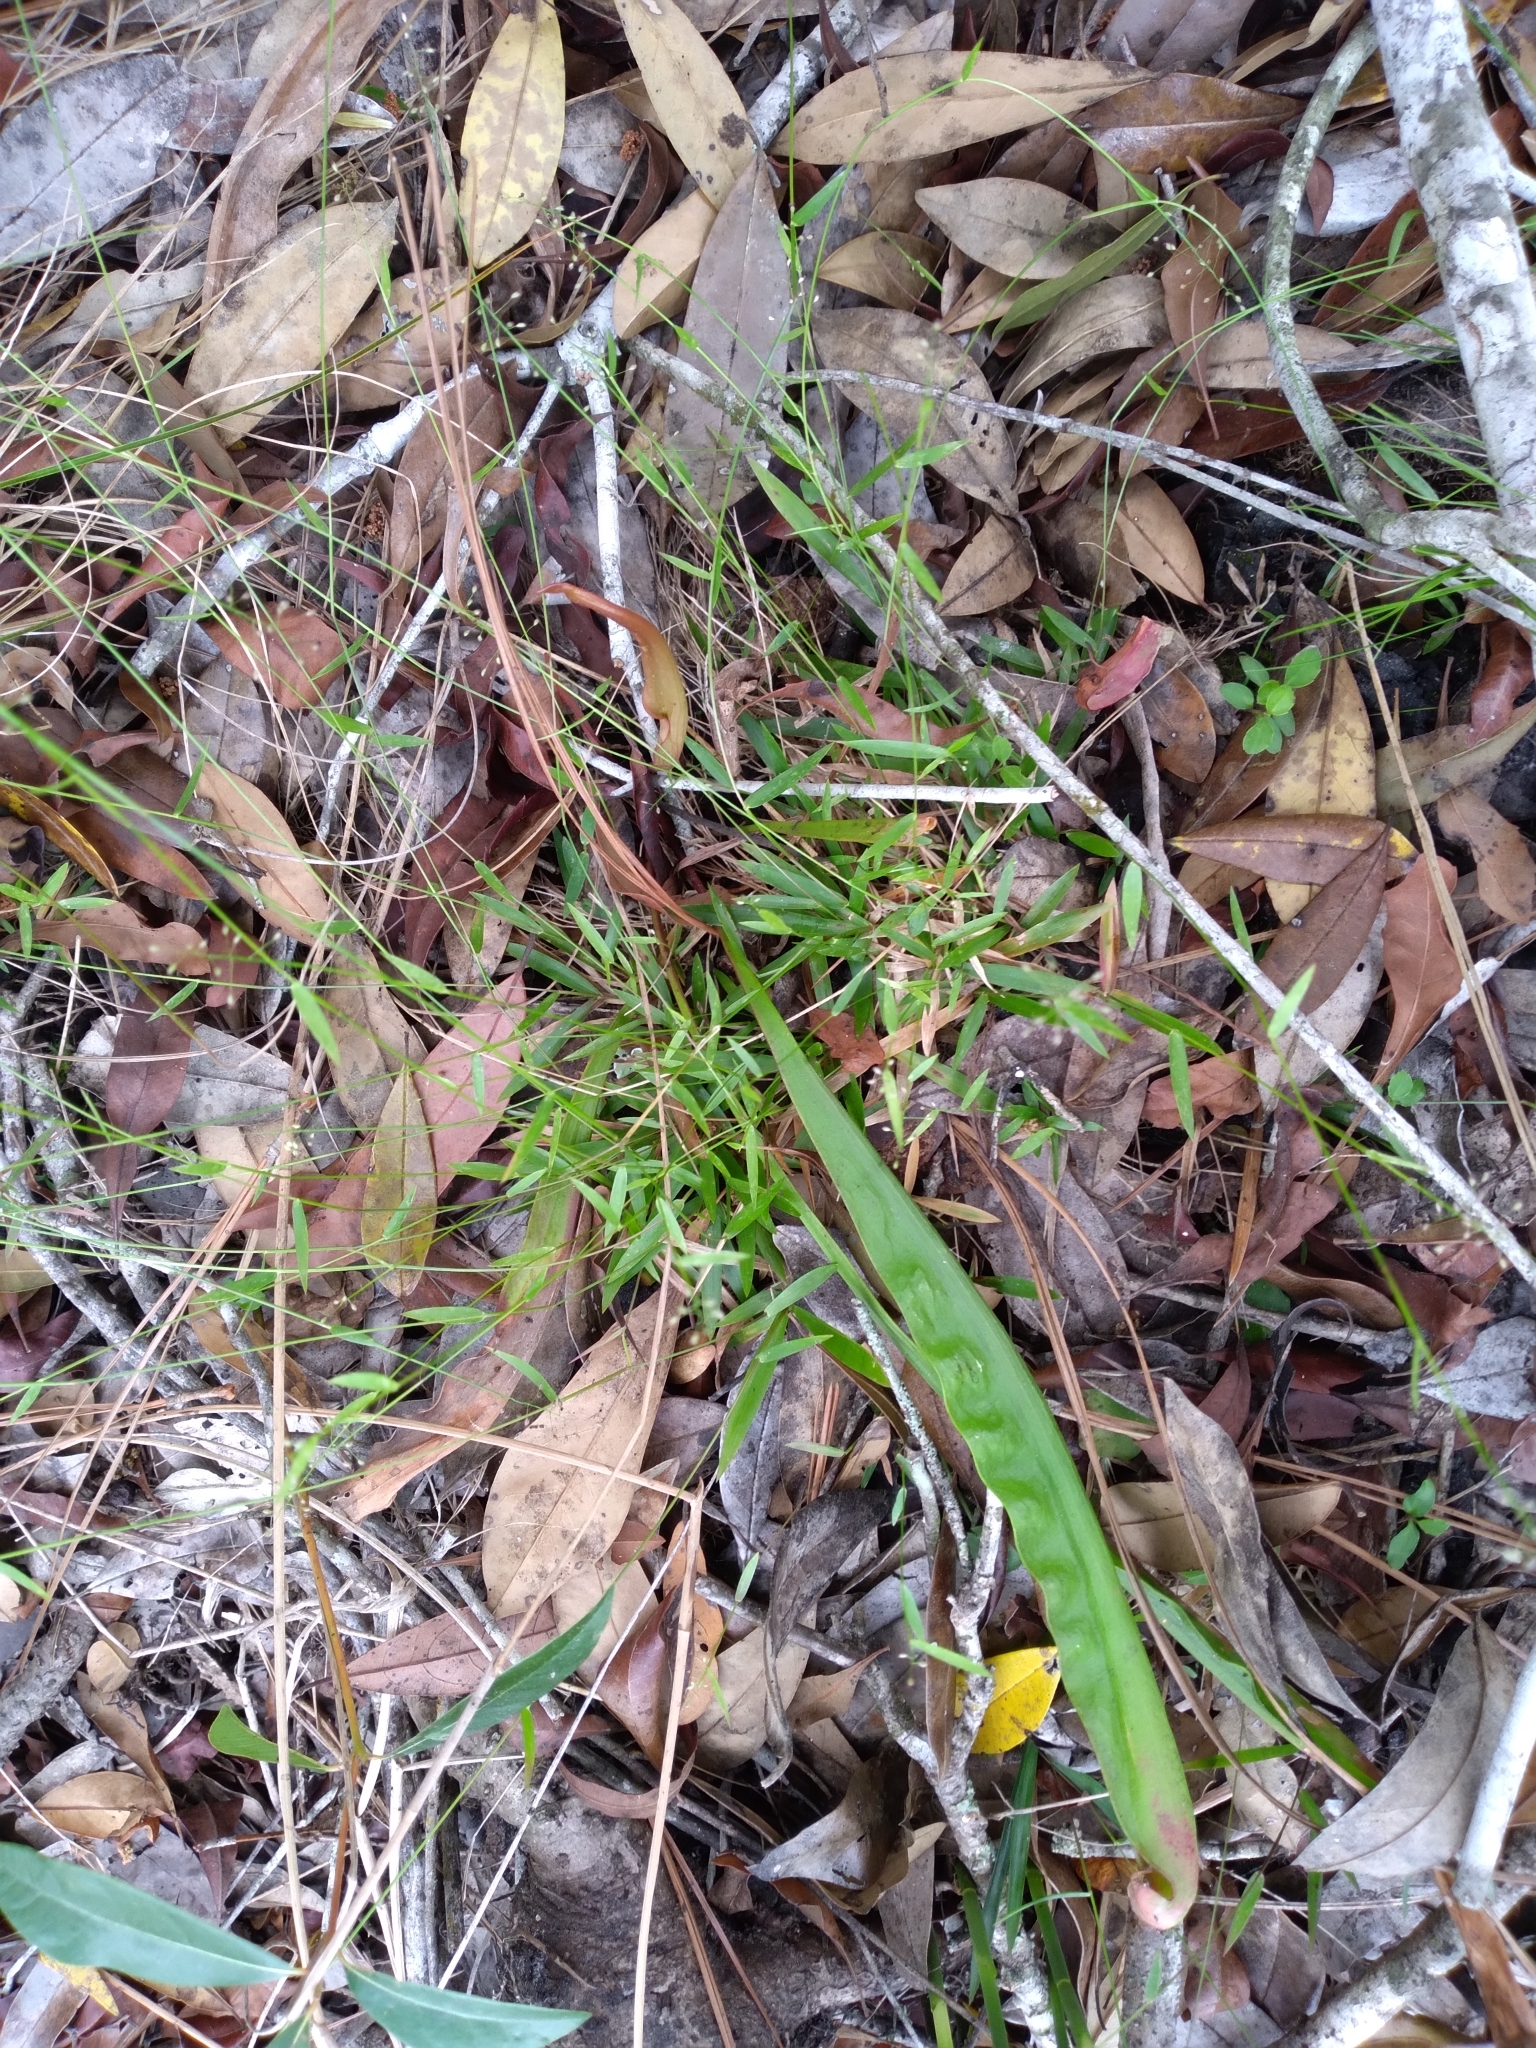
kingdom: Plantae
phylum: Tracheophyta
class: Liliopsida
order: Poales
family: Poaceae
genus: Dichanthelium
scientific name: Dichanthelium ensifolium
